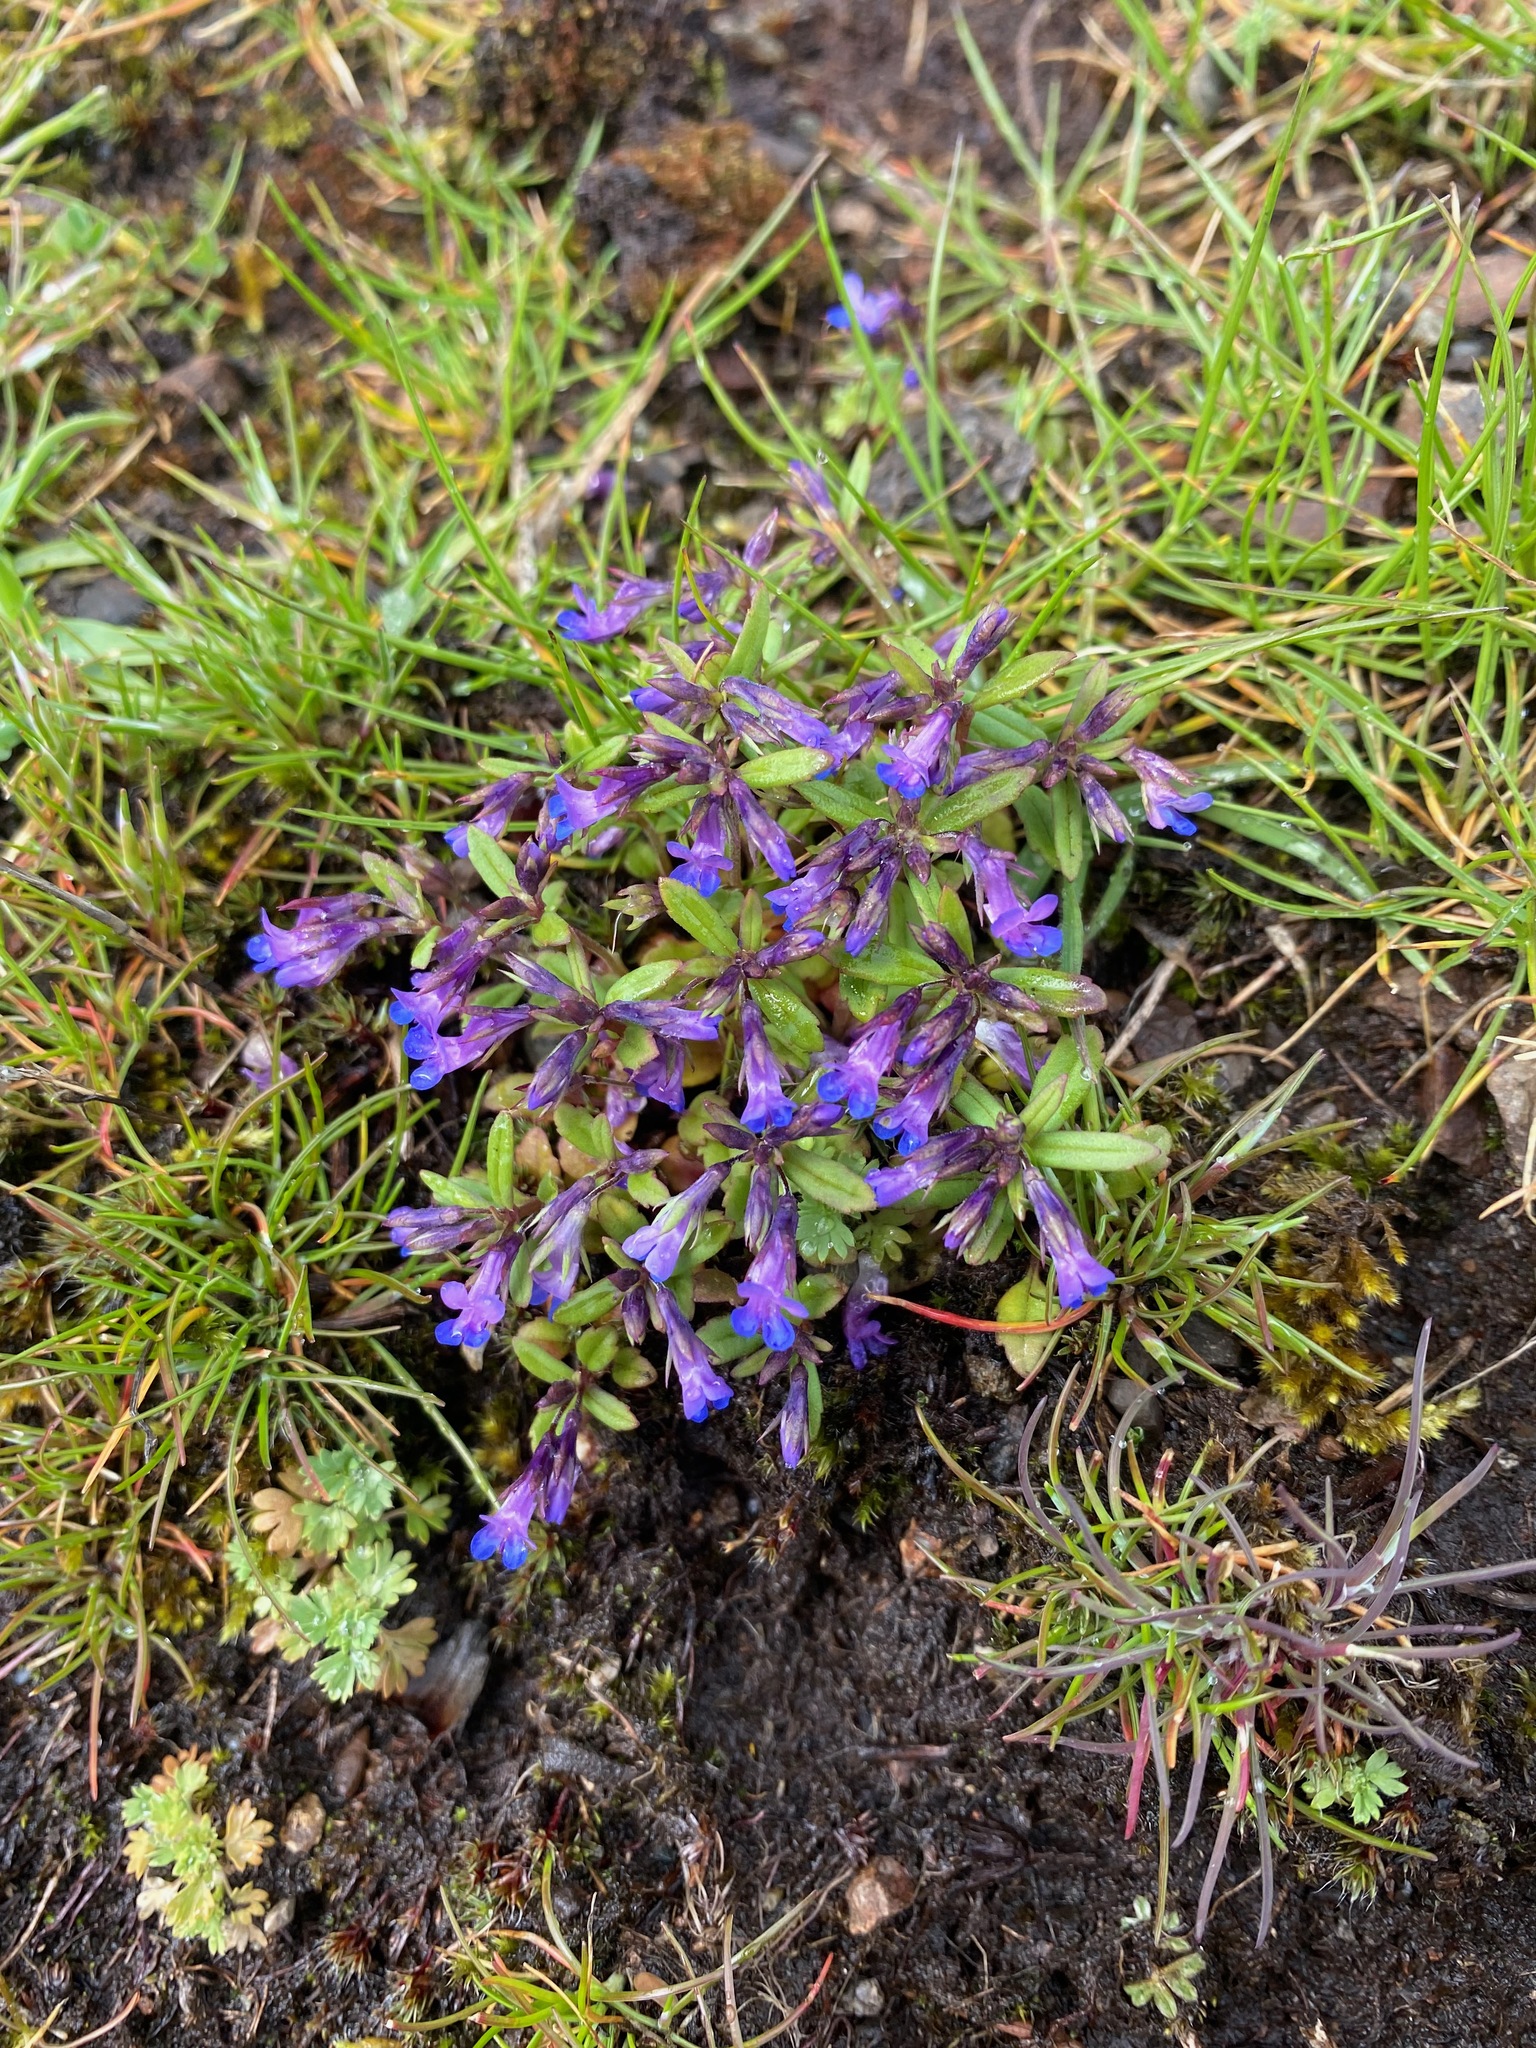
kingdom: Plantae
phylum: Tracheophyta
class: Magnoliopsida
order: Lamiales
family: Plantaginaceae
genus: Collinsia
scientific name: Collinsia parviflora
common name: Blue-lips
